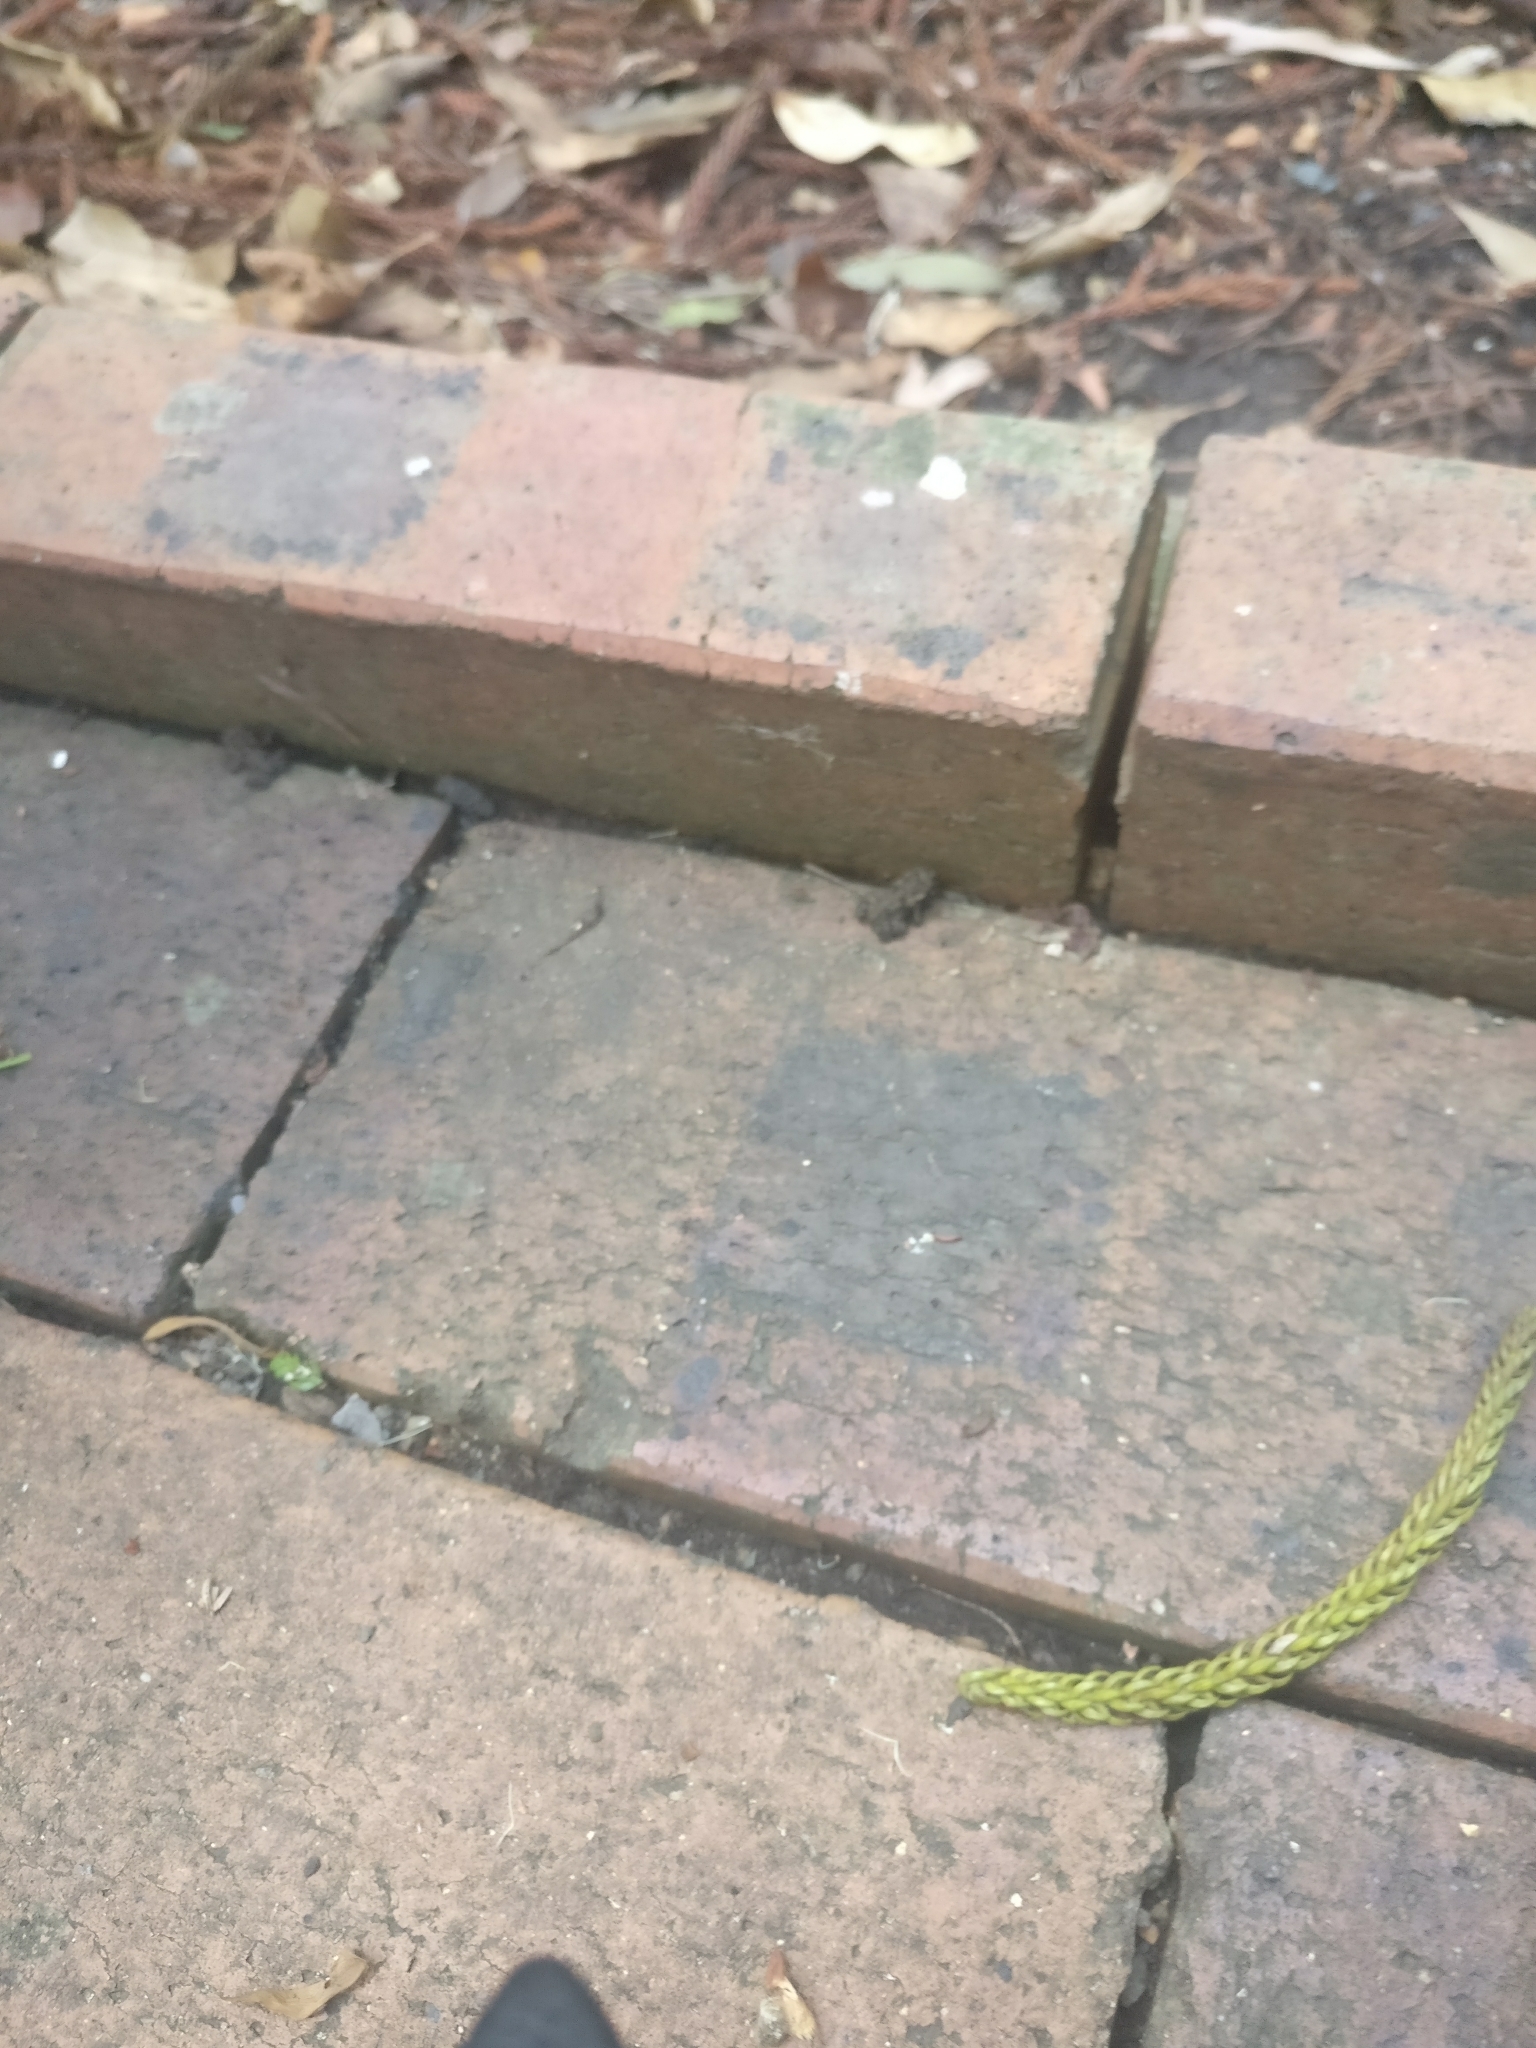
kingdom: Animalia
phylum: Chordata
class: Amphibia
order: Anura
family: Bufonidae
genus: Rhinella
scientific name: Rhinella marina
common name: Cane toad
